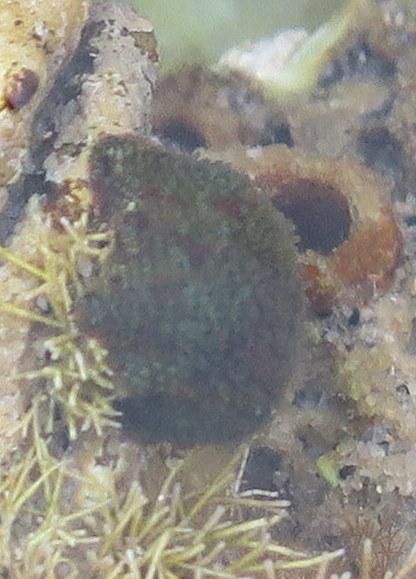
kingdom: Animalia
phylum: Echinodermata
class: Asteroidea
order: Valvatida
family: Asterinidae
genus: Parvulastra
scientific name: Parvulastra exigua
